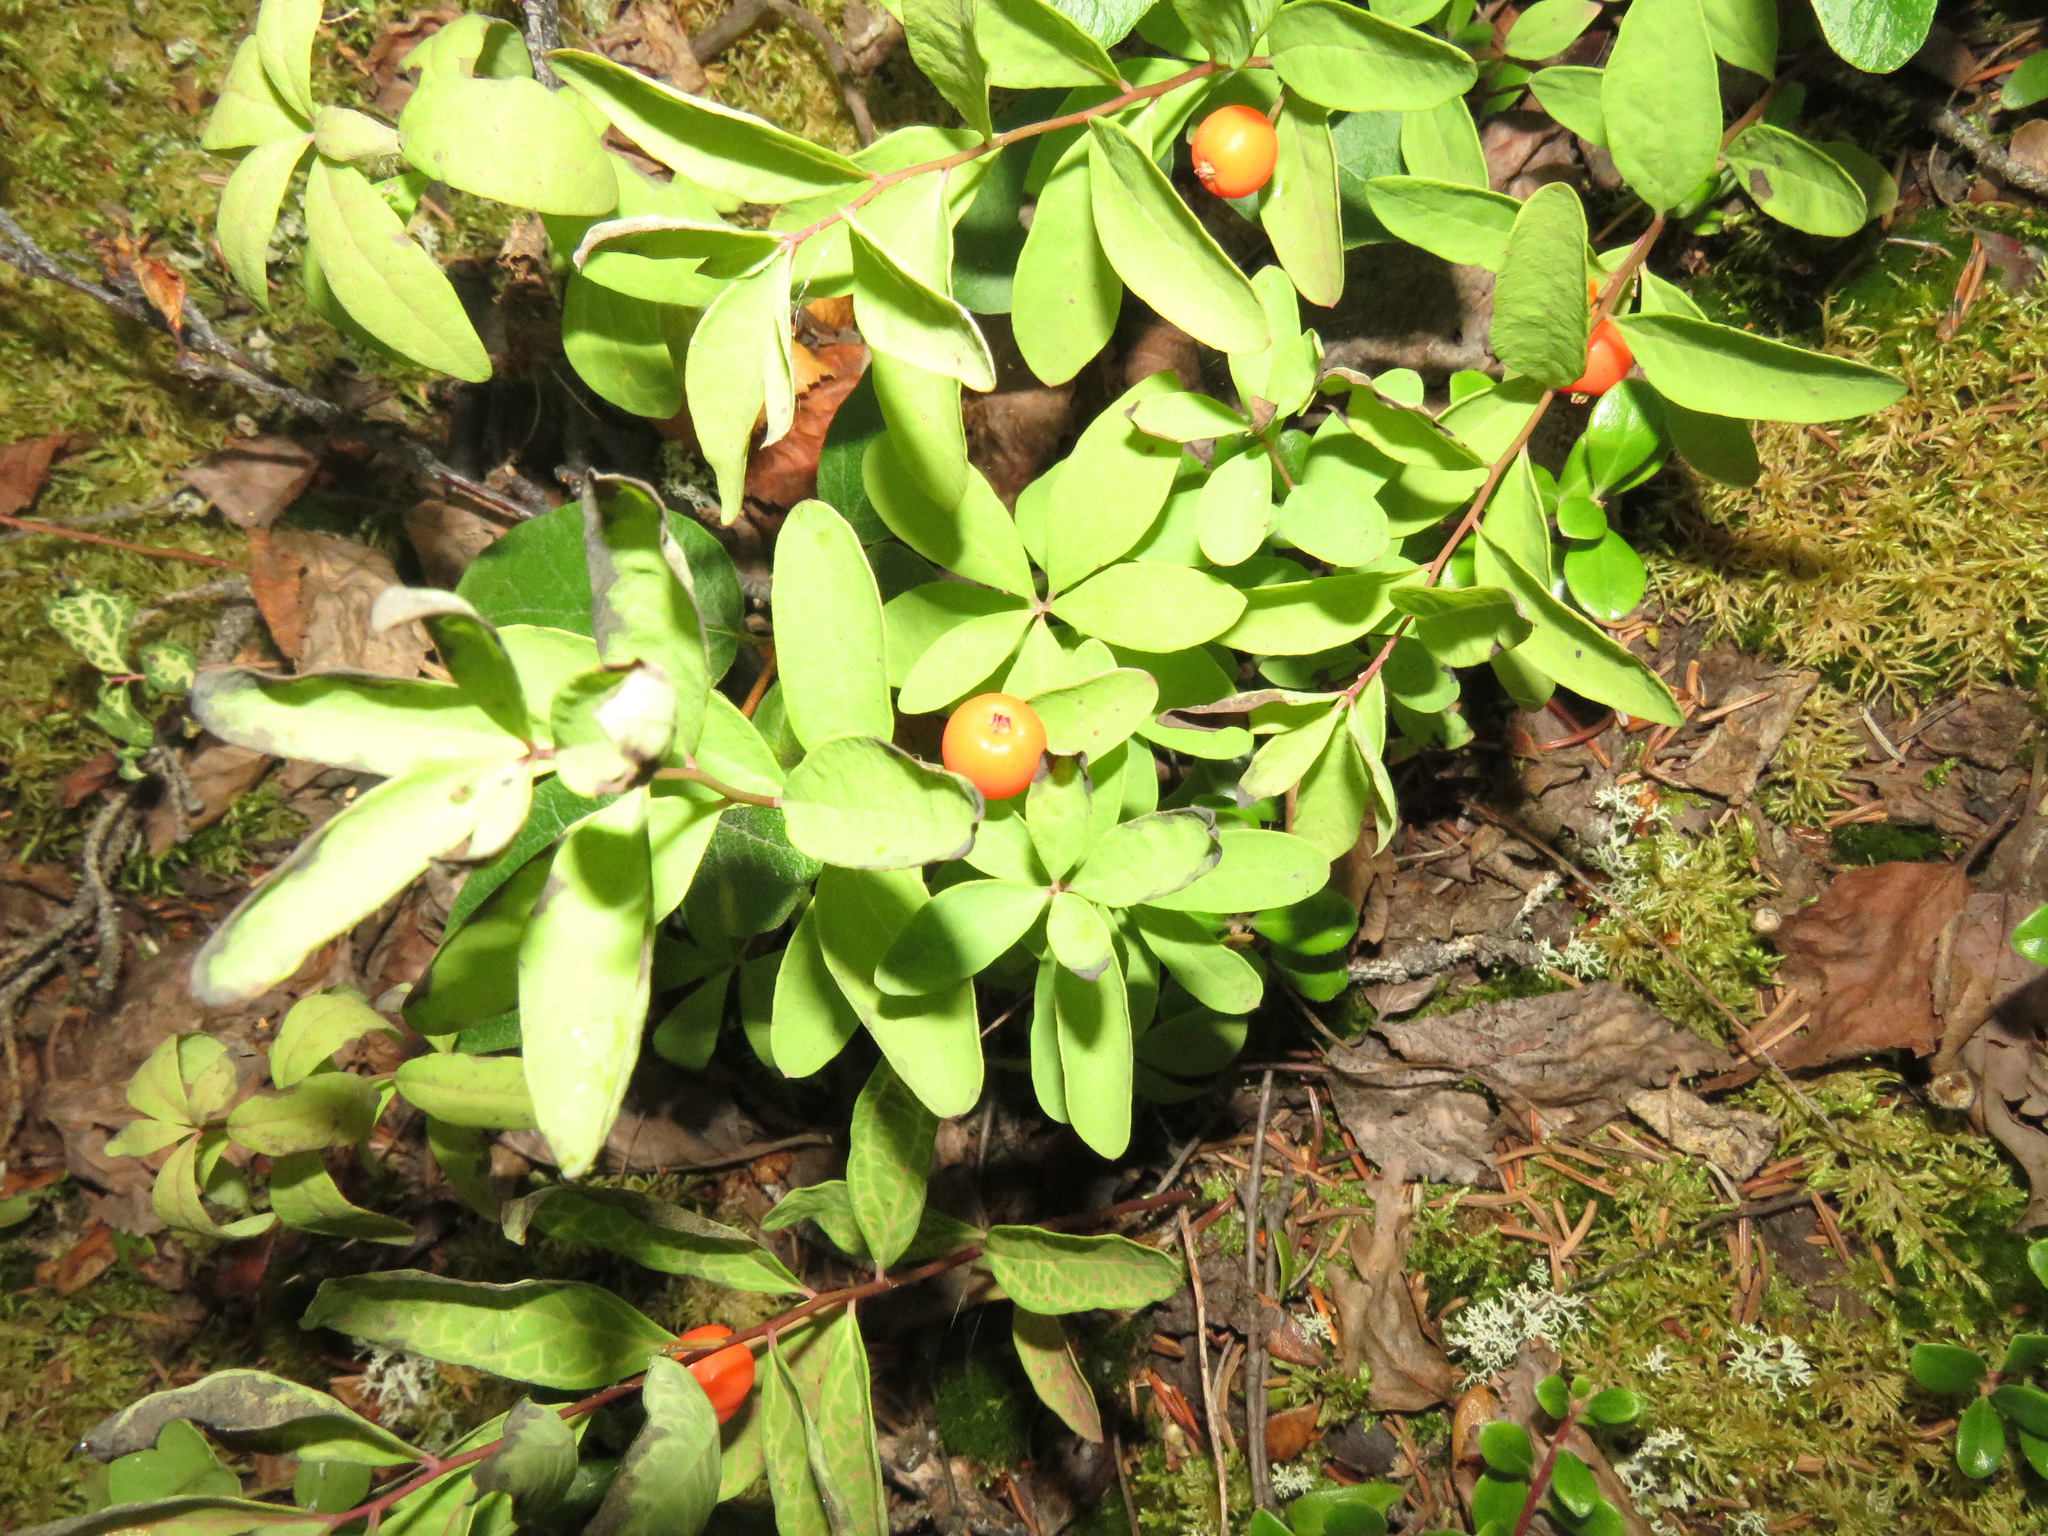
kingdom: Plantae
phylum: Tracheophyta
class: Magnoliopsida
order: Santalales
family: Comandraceae
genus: Geocaulon
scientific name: Geocaulon lividum
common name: Earthberry
